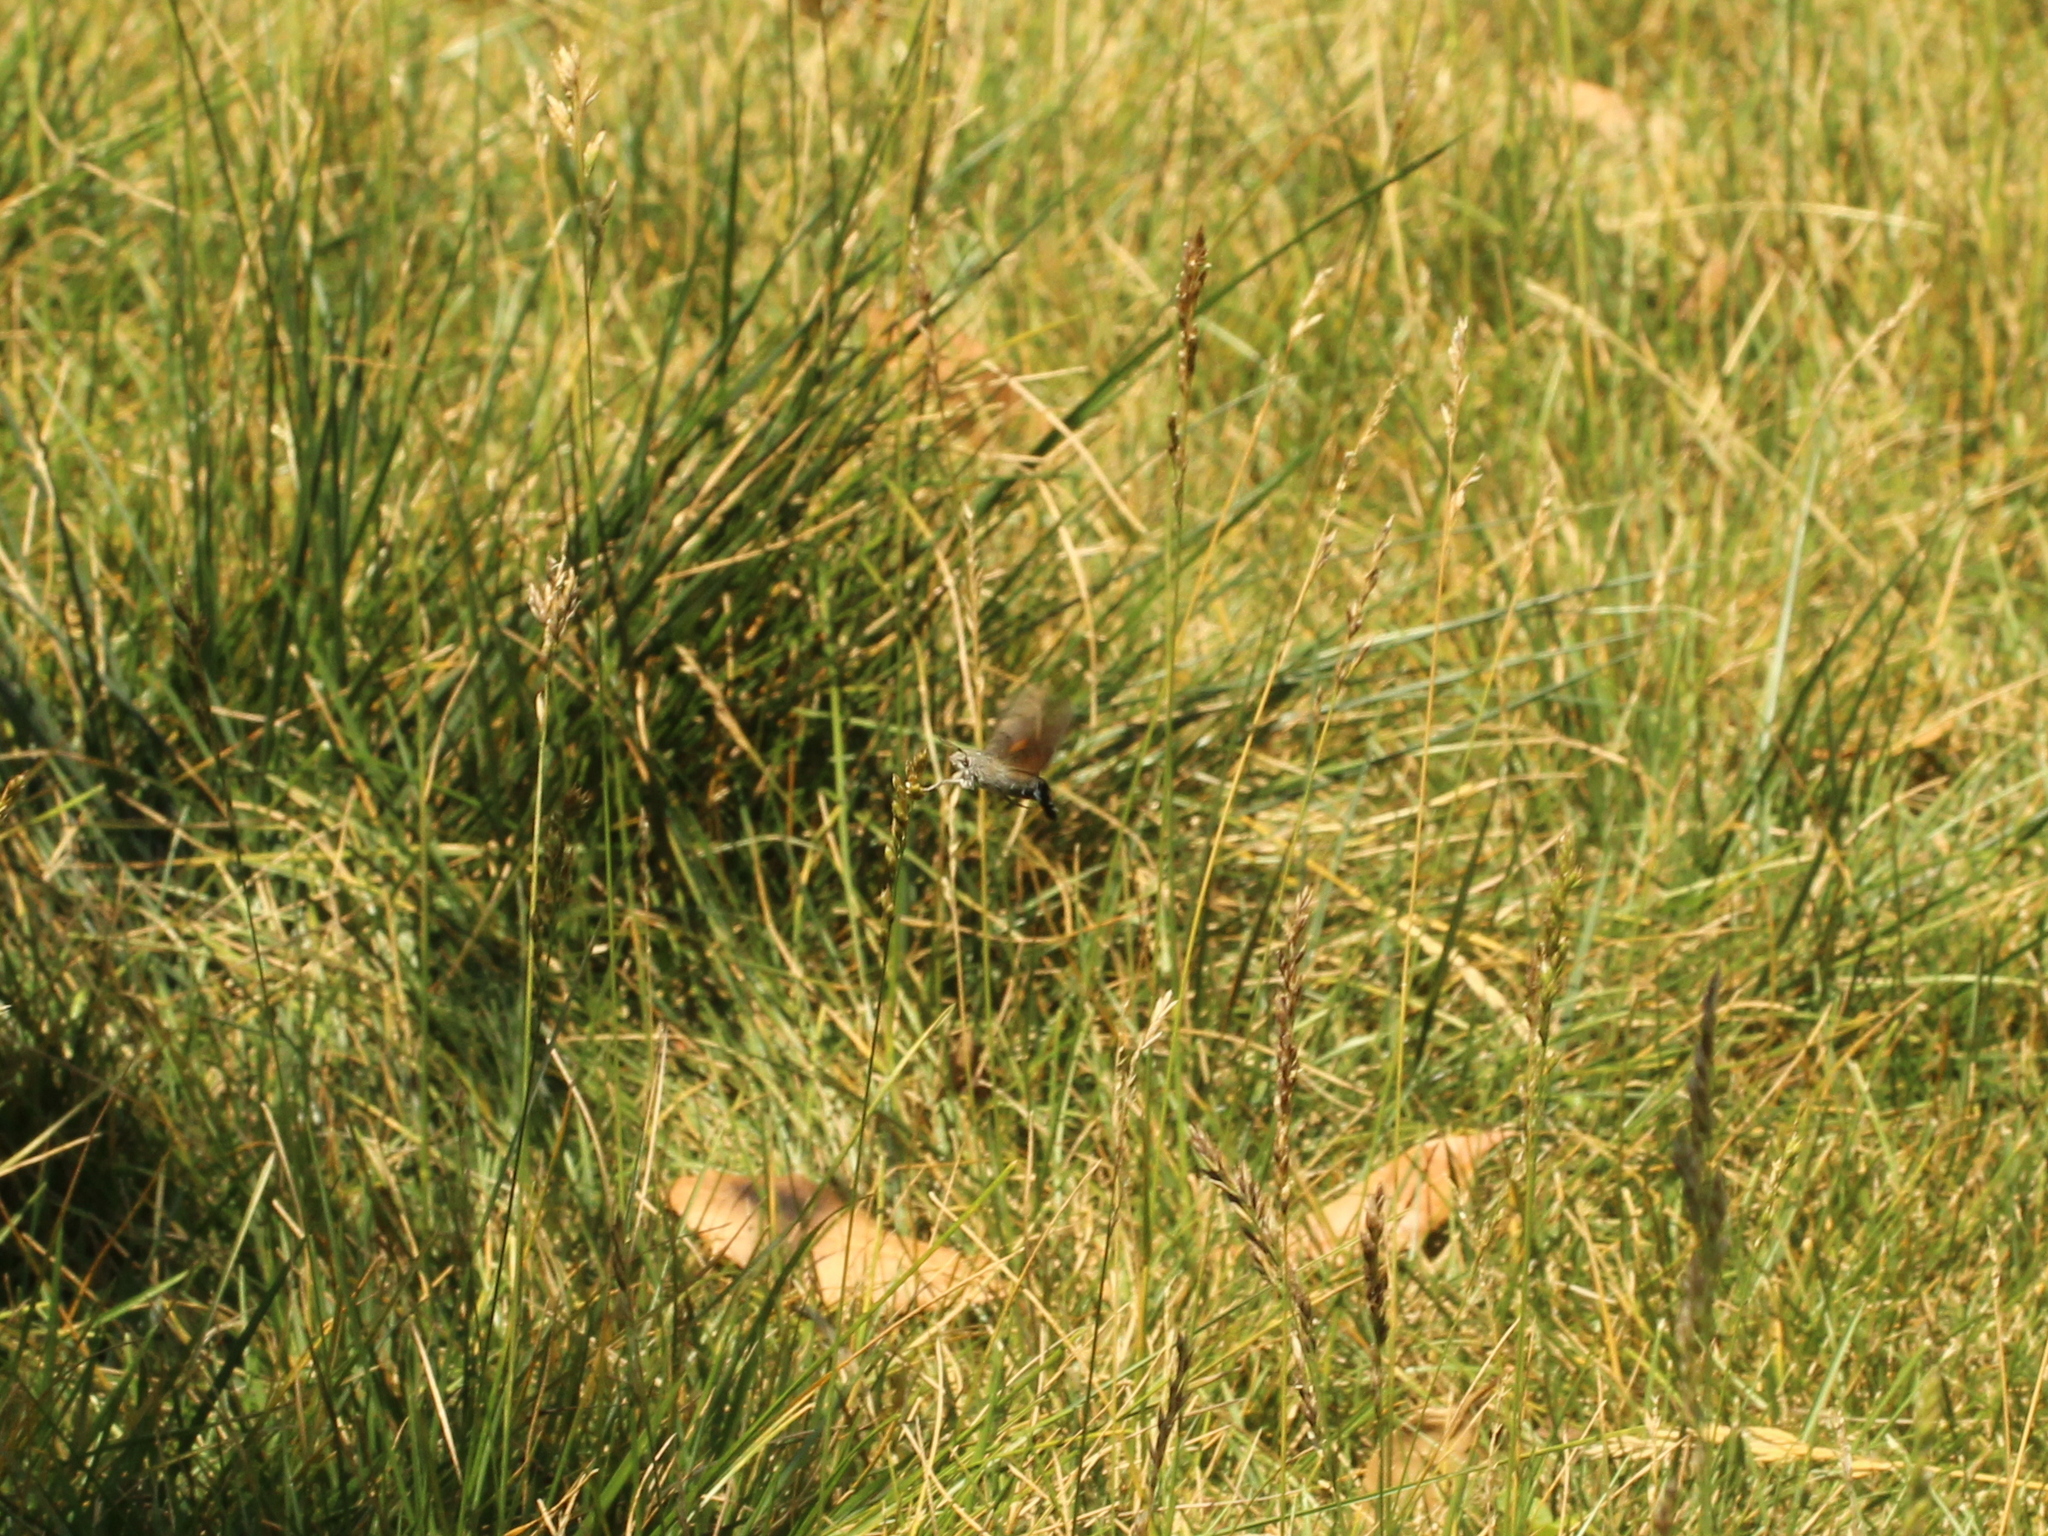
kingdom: Animalia
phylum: Arthropoda
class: Insecta
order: Lepidoptera
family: Sphingidae
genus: Macroglossum
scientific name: Macroglossum stellatarum
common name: Humming-bird hawk-moth
